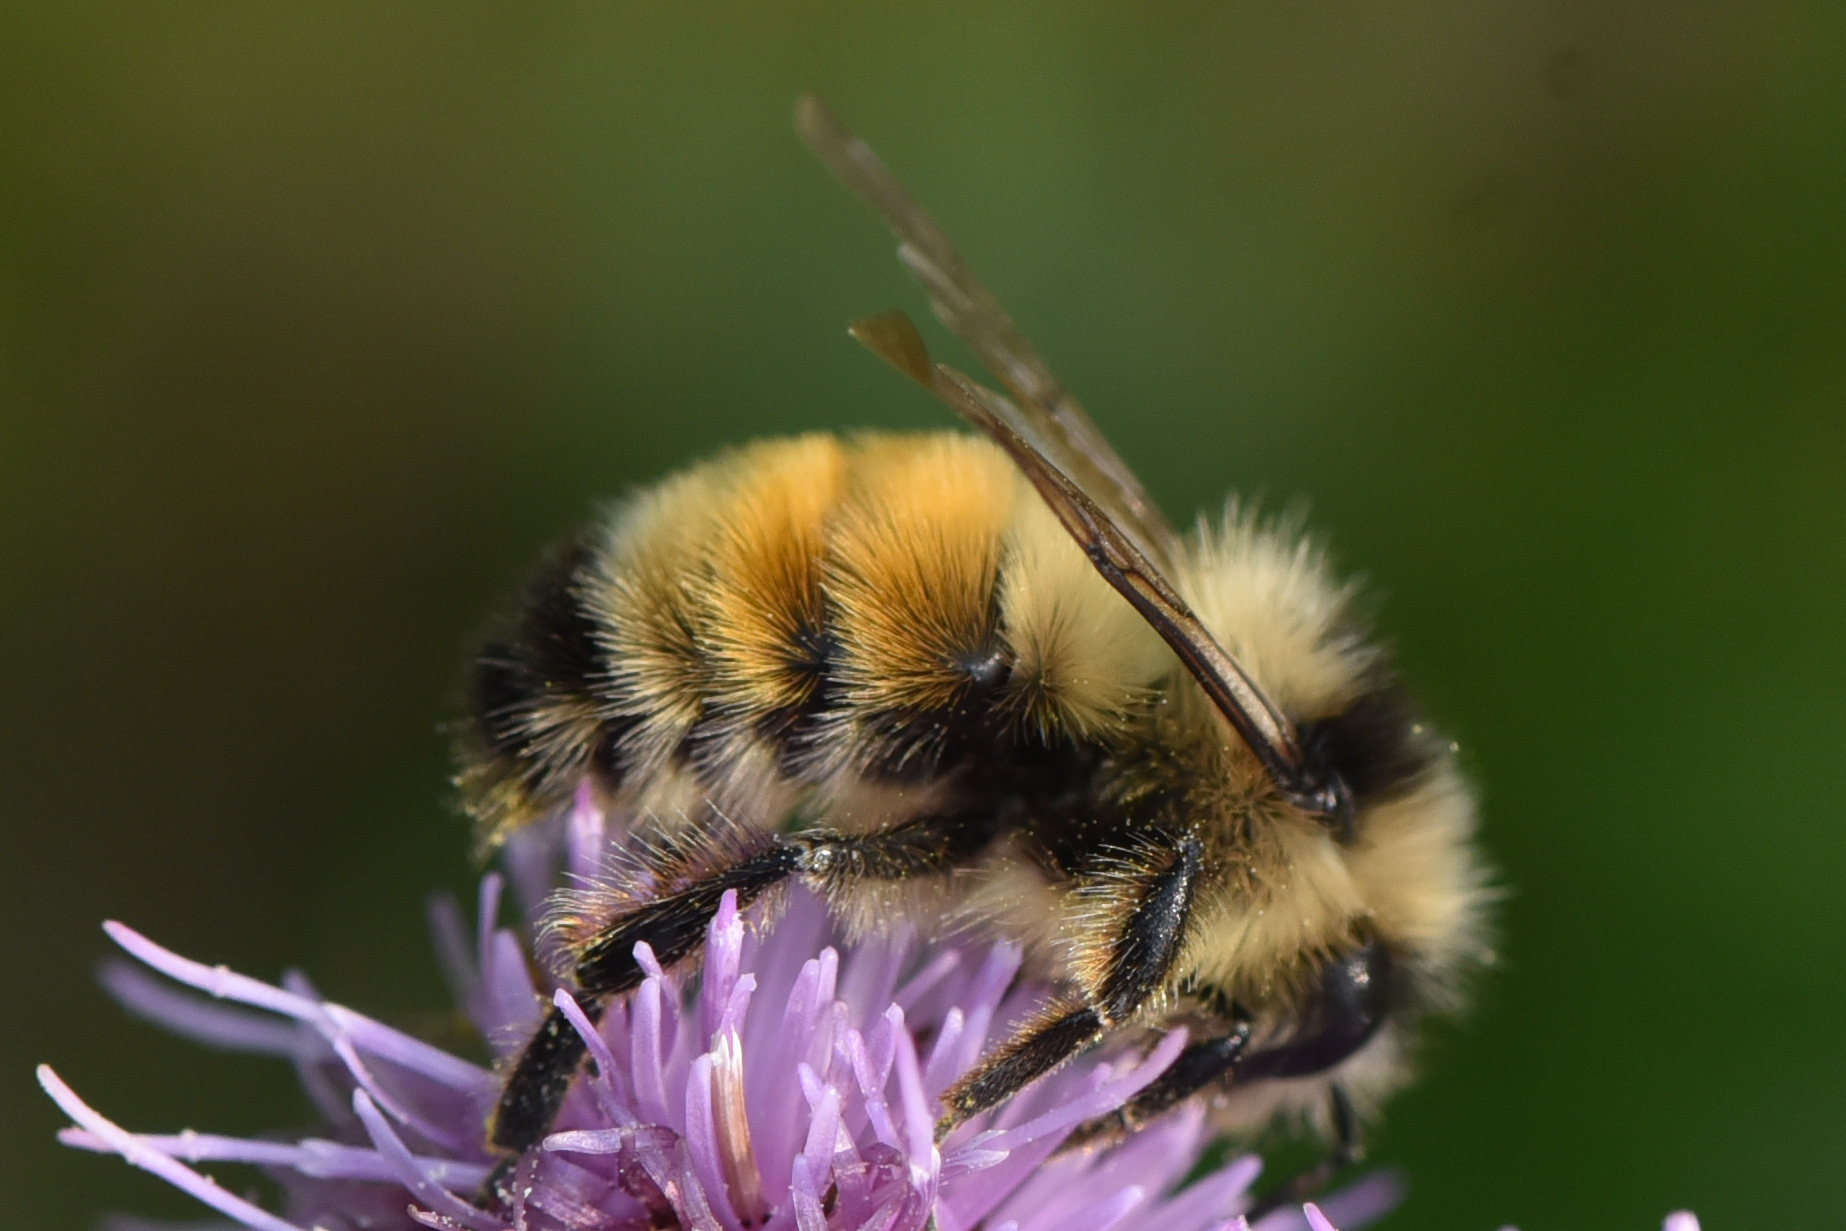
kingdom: Animalia
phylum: Arthropoda
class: Insecta
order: Hymenoptera
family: Apidae
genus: Bombus
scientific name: Bombus ternarius
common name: Tri-colored bumble bee
